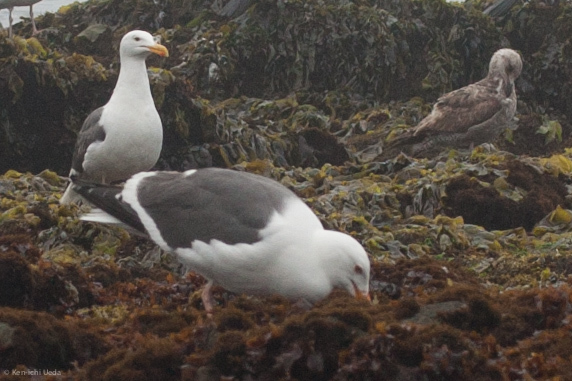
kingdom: Animalia
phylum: Chordata
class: Aves
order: Charadriiformes
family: Laridae
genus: Larus
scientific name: Larus occidentalis
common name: Western gull
